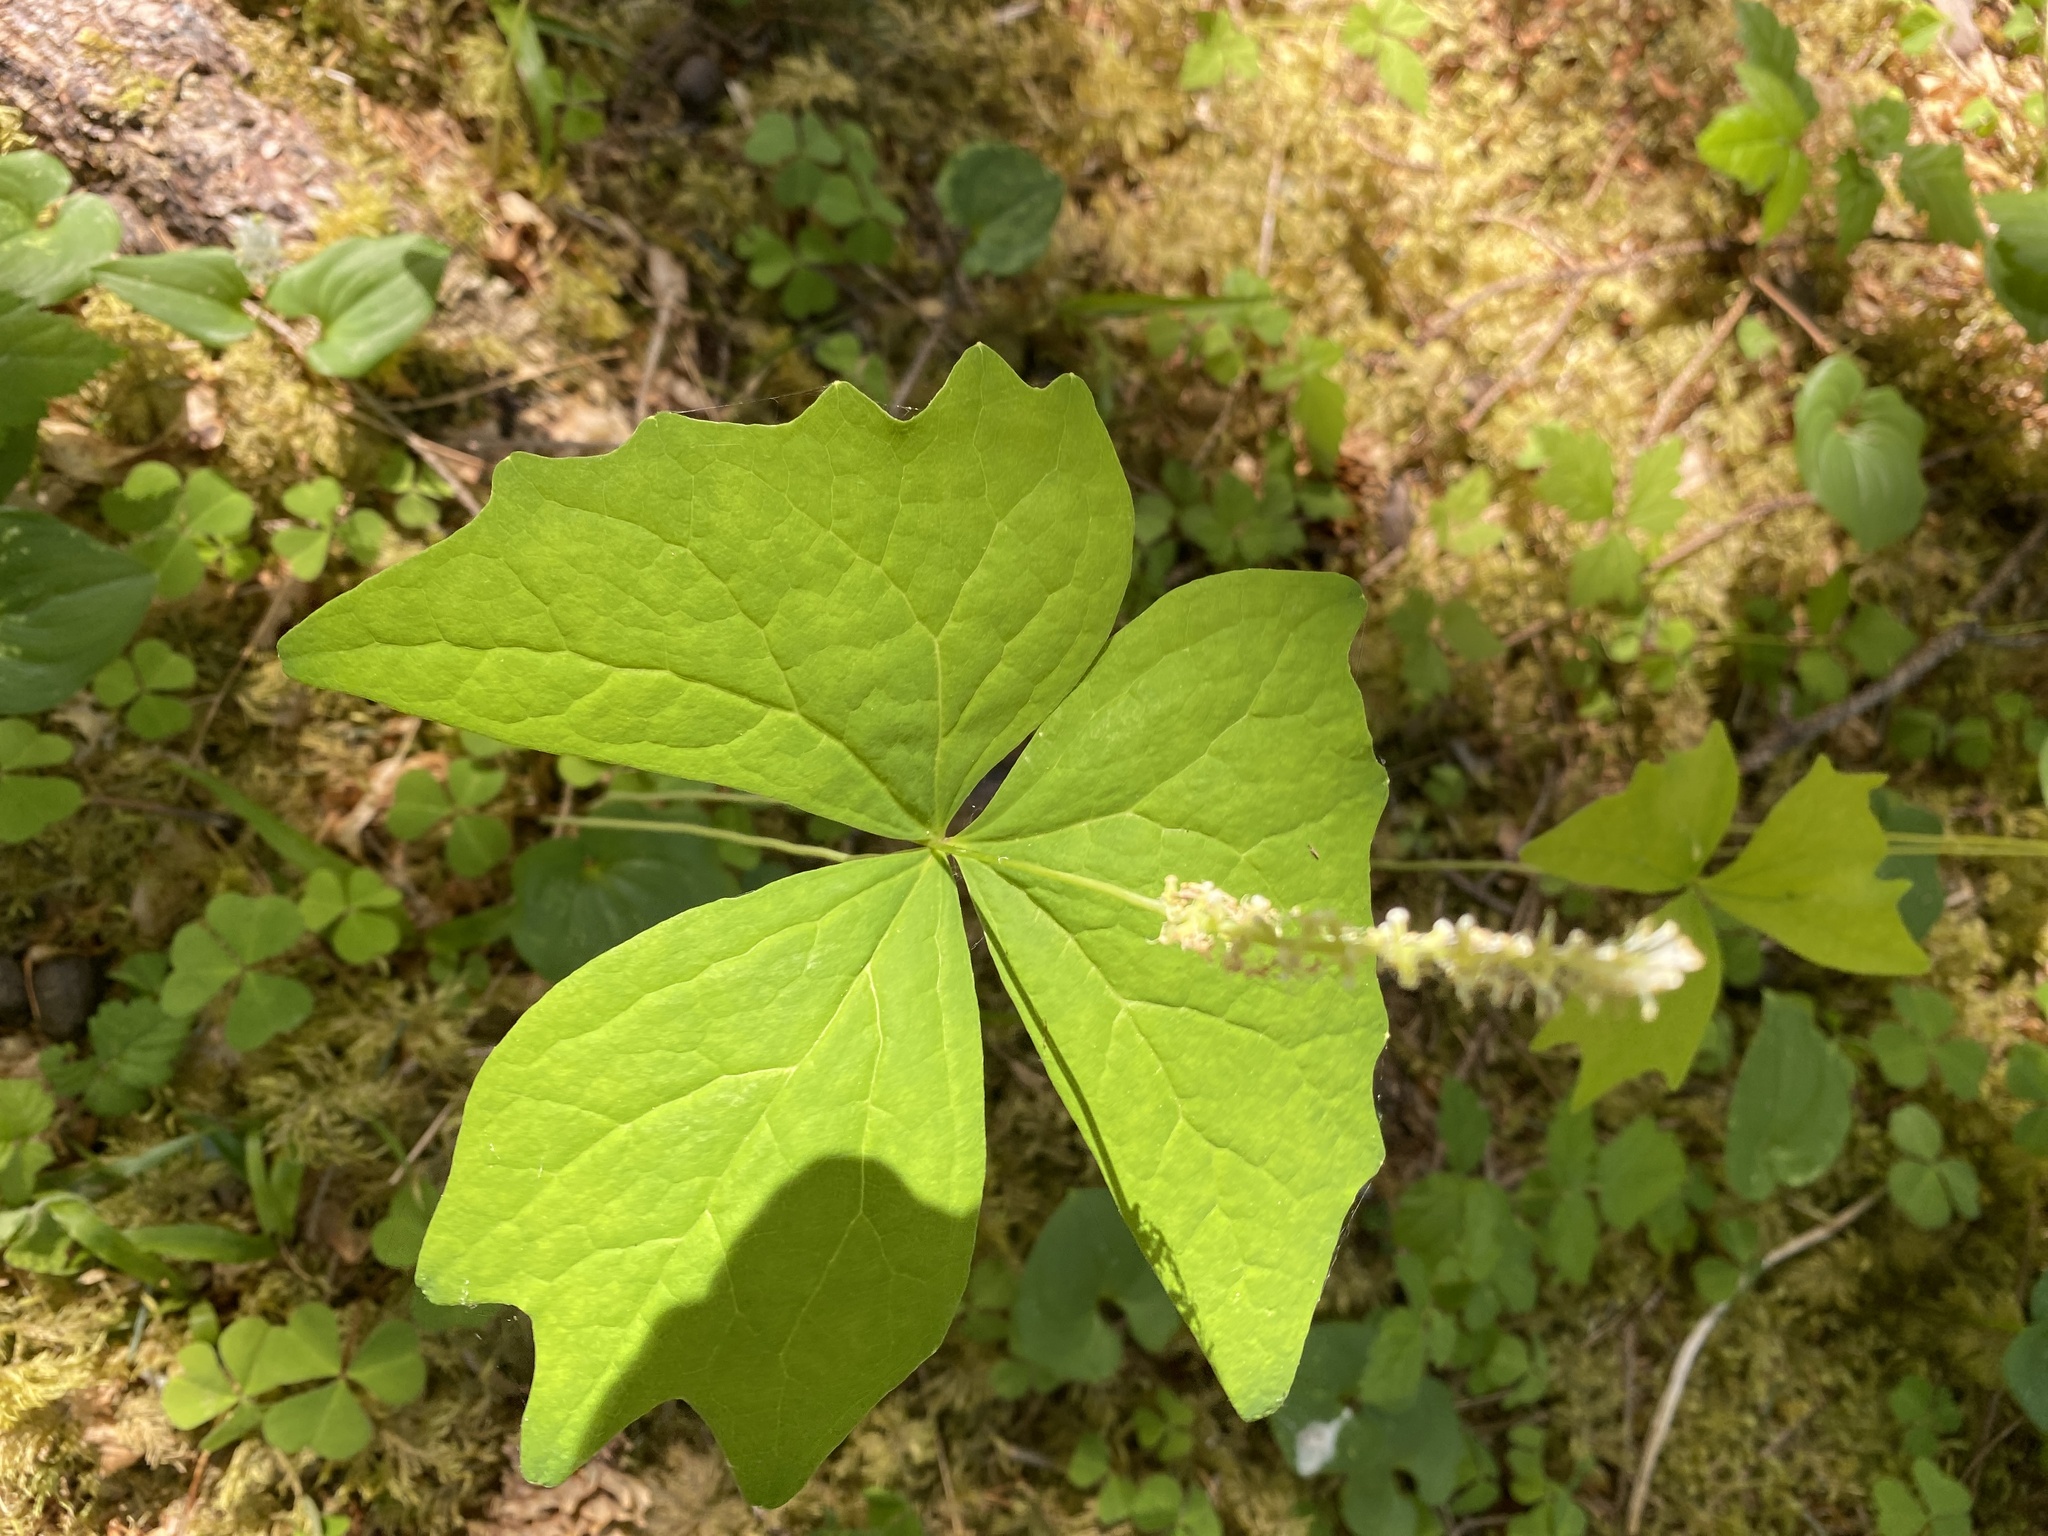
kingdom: Plantae
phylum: Tracheophyta
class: Magnoliopsida
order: Ranunculales
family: Berberidaceae
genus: Achlys
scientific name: Achlys triphylla
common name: Vanilla-leaf
